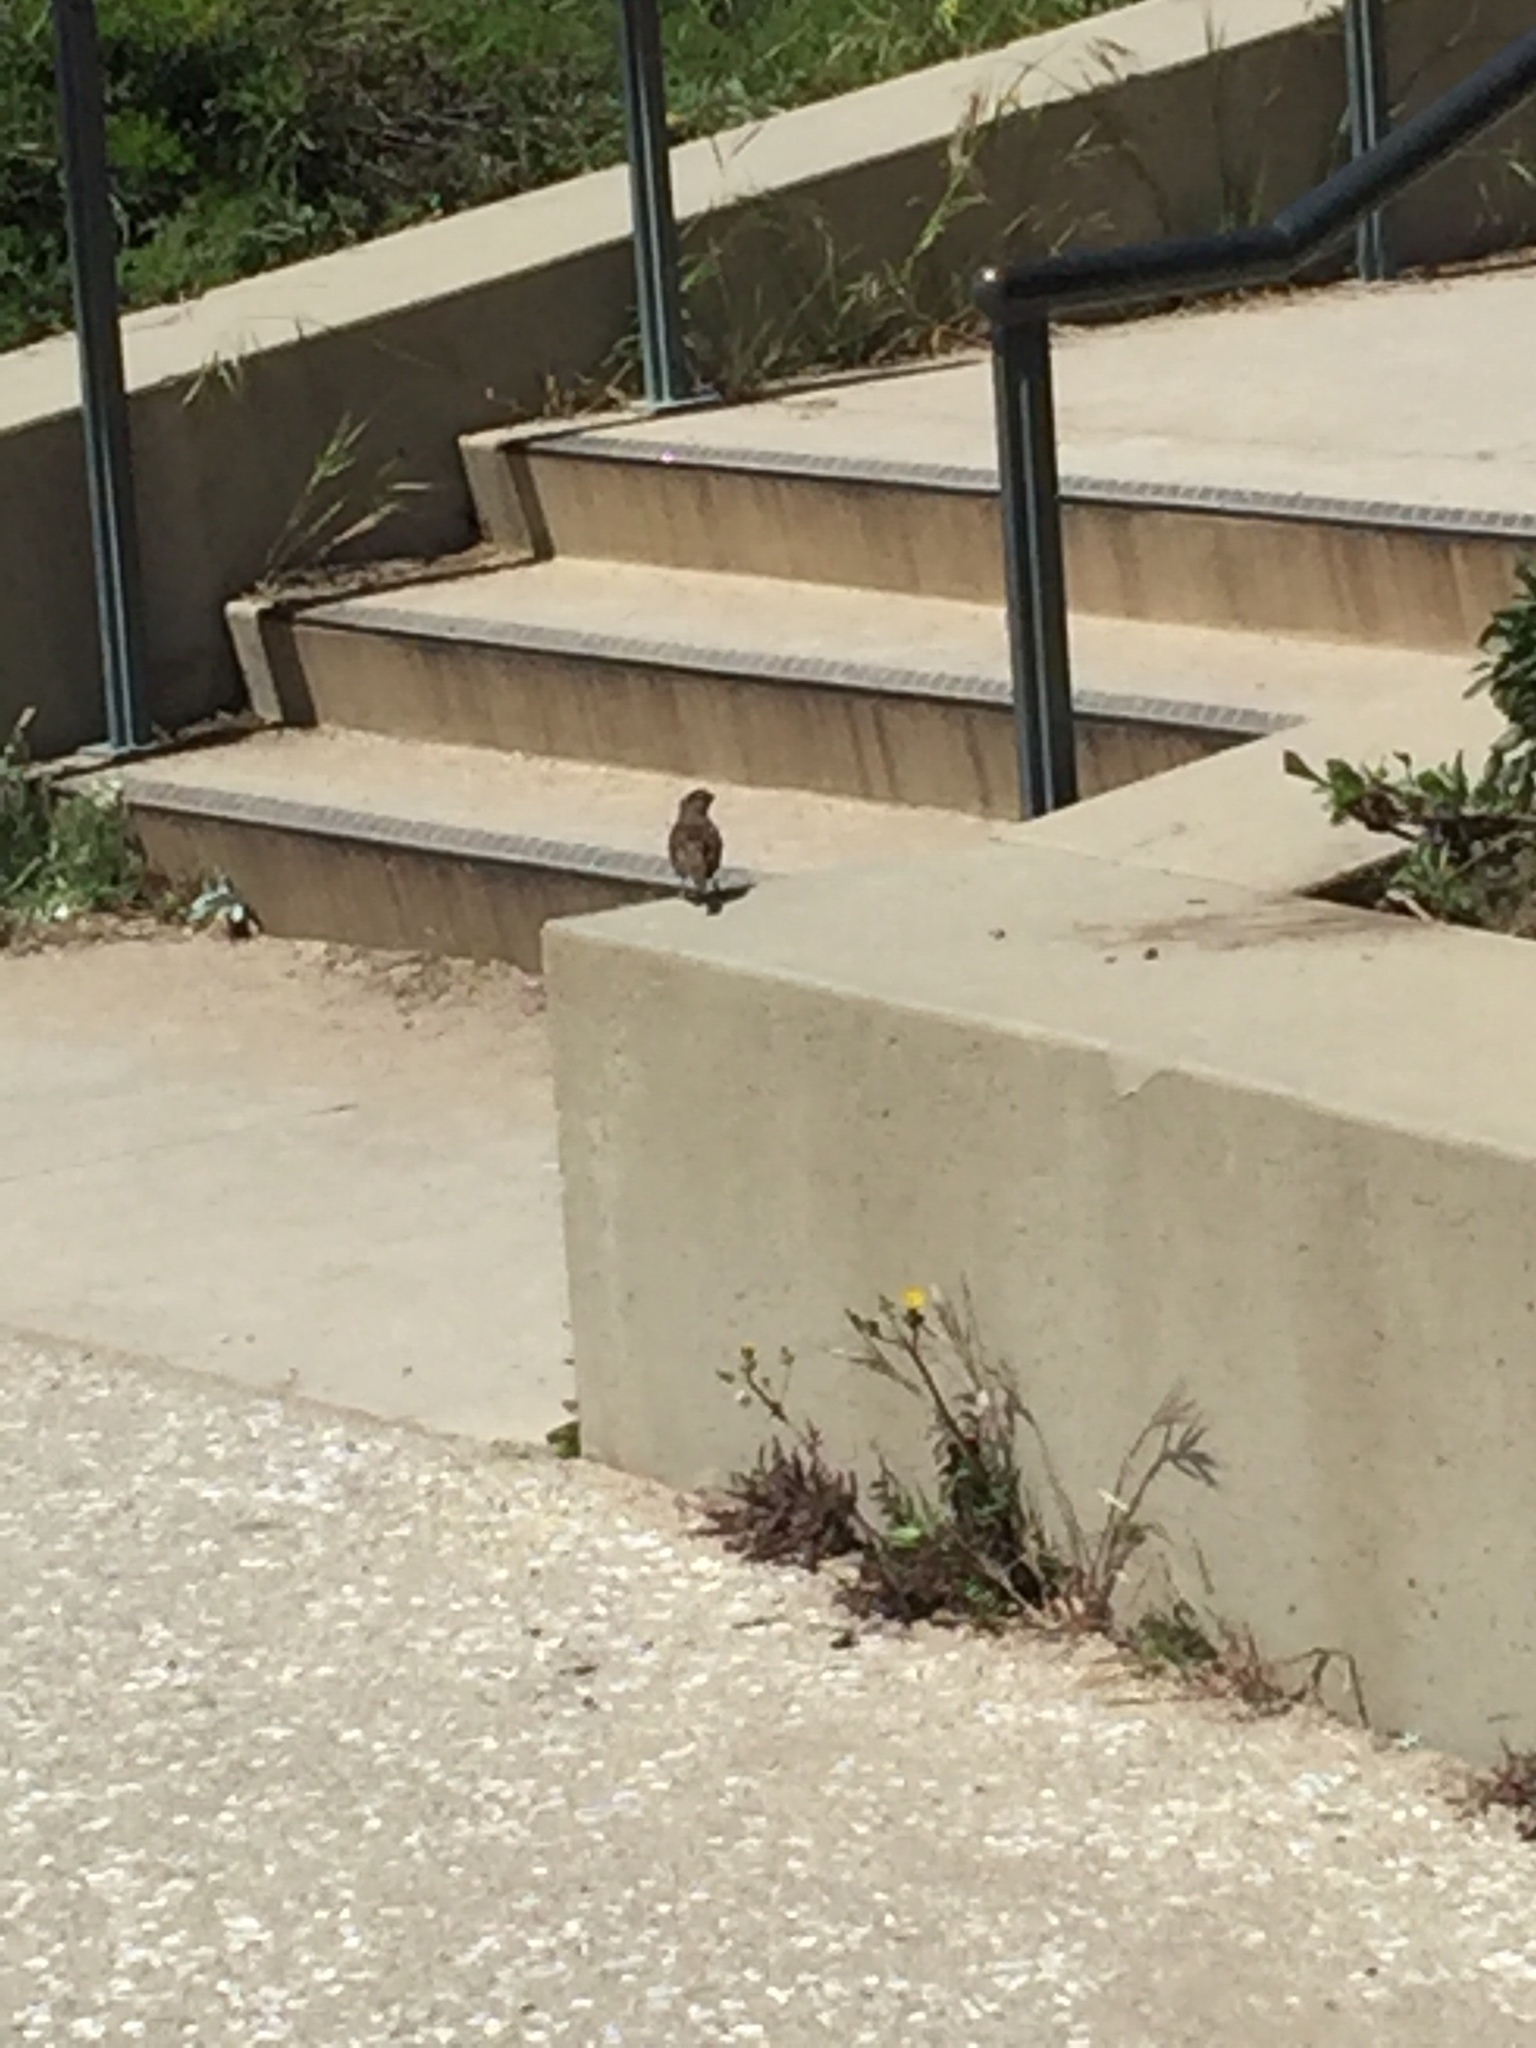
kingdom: Animalia
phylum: Chordata
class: Aves
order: Passeriformes
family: Passerellidae
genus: Zonotrichia
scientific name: Zonotrichia leucophrys
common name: White-crowned sparrow
